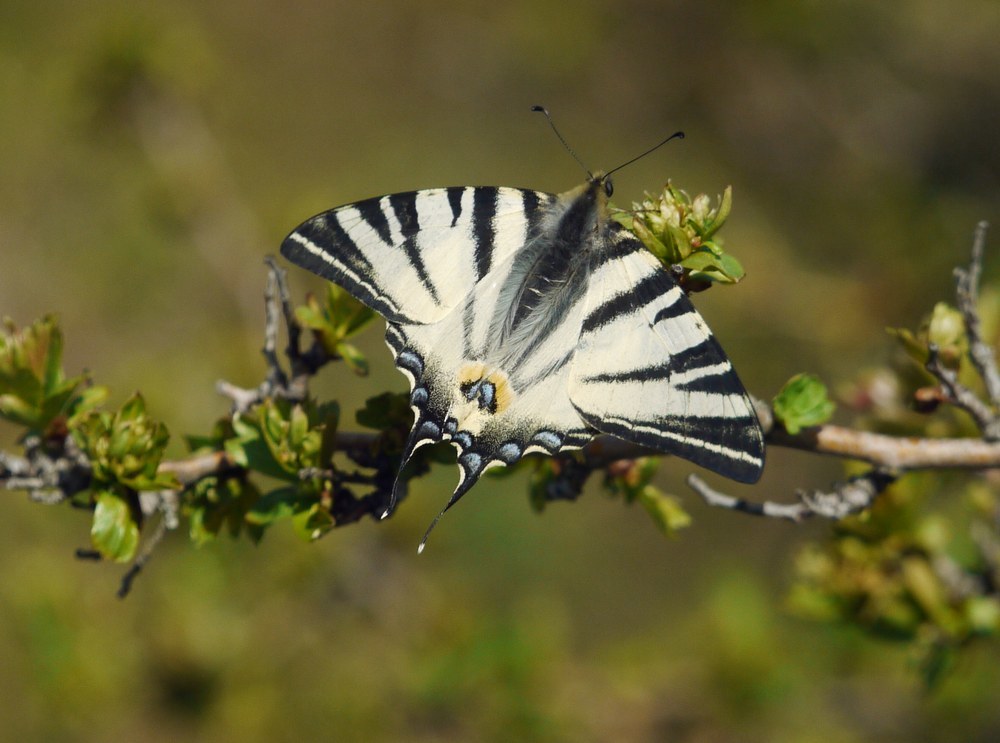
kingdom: Animalia
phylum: Arthropoda
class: Insecta
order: Lepidoptera
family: Papilionidae
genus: Iphiclides
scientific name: Iphiclides podalirius
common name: Scarce swallowtail
